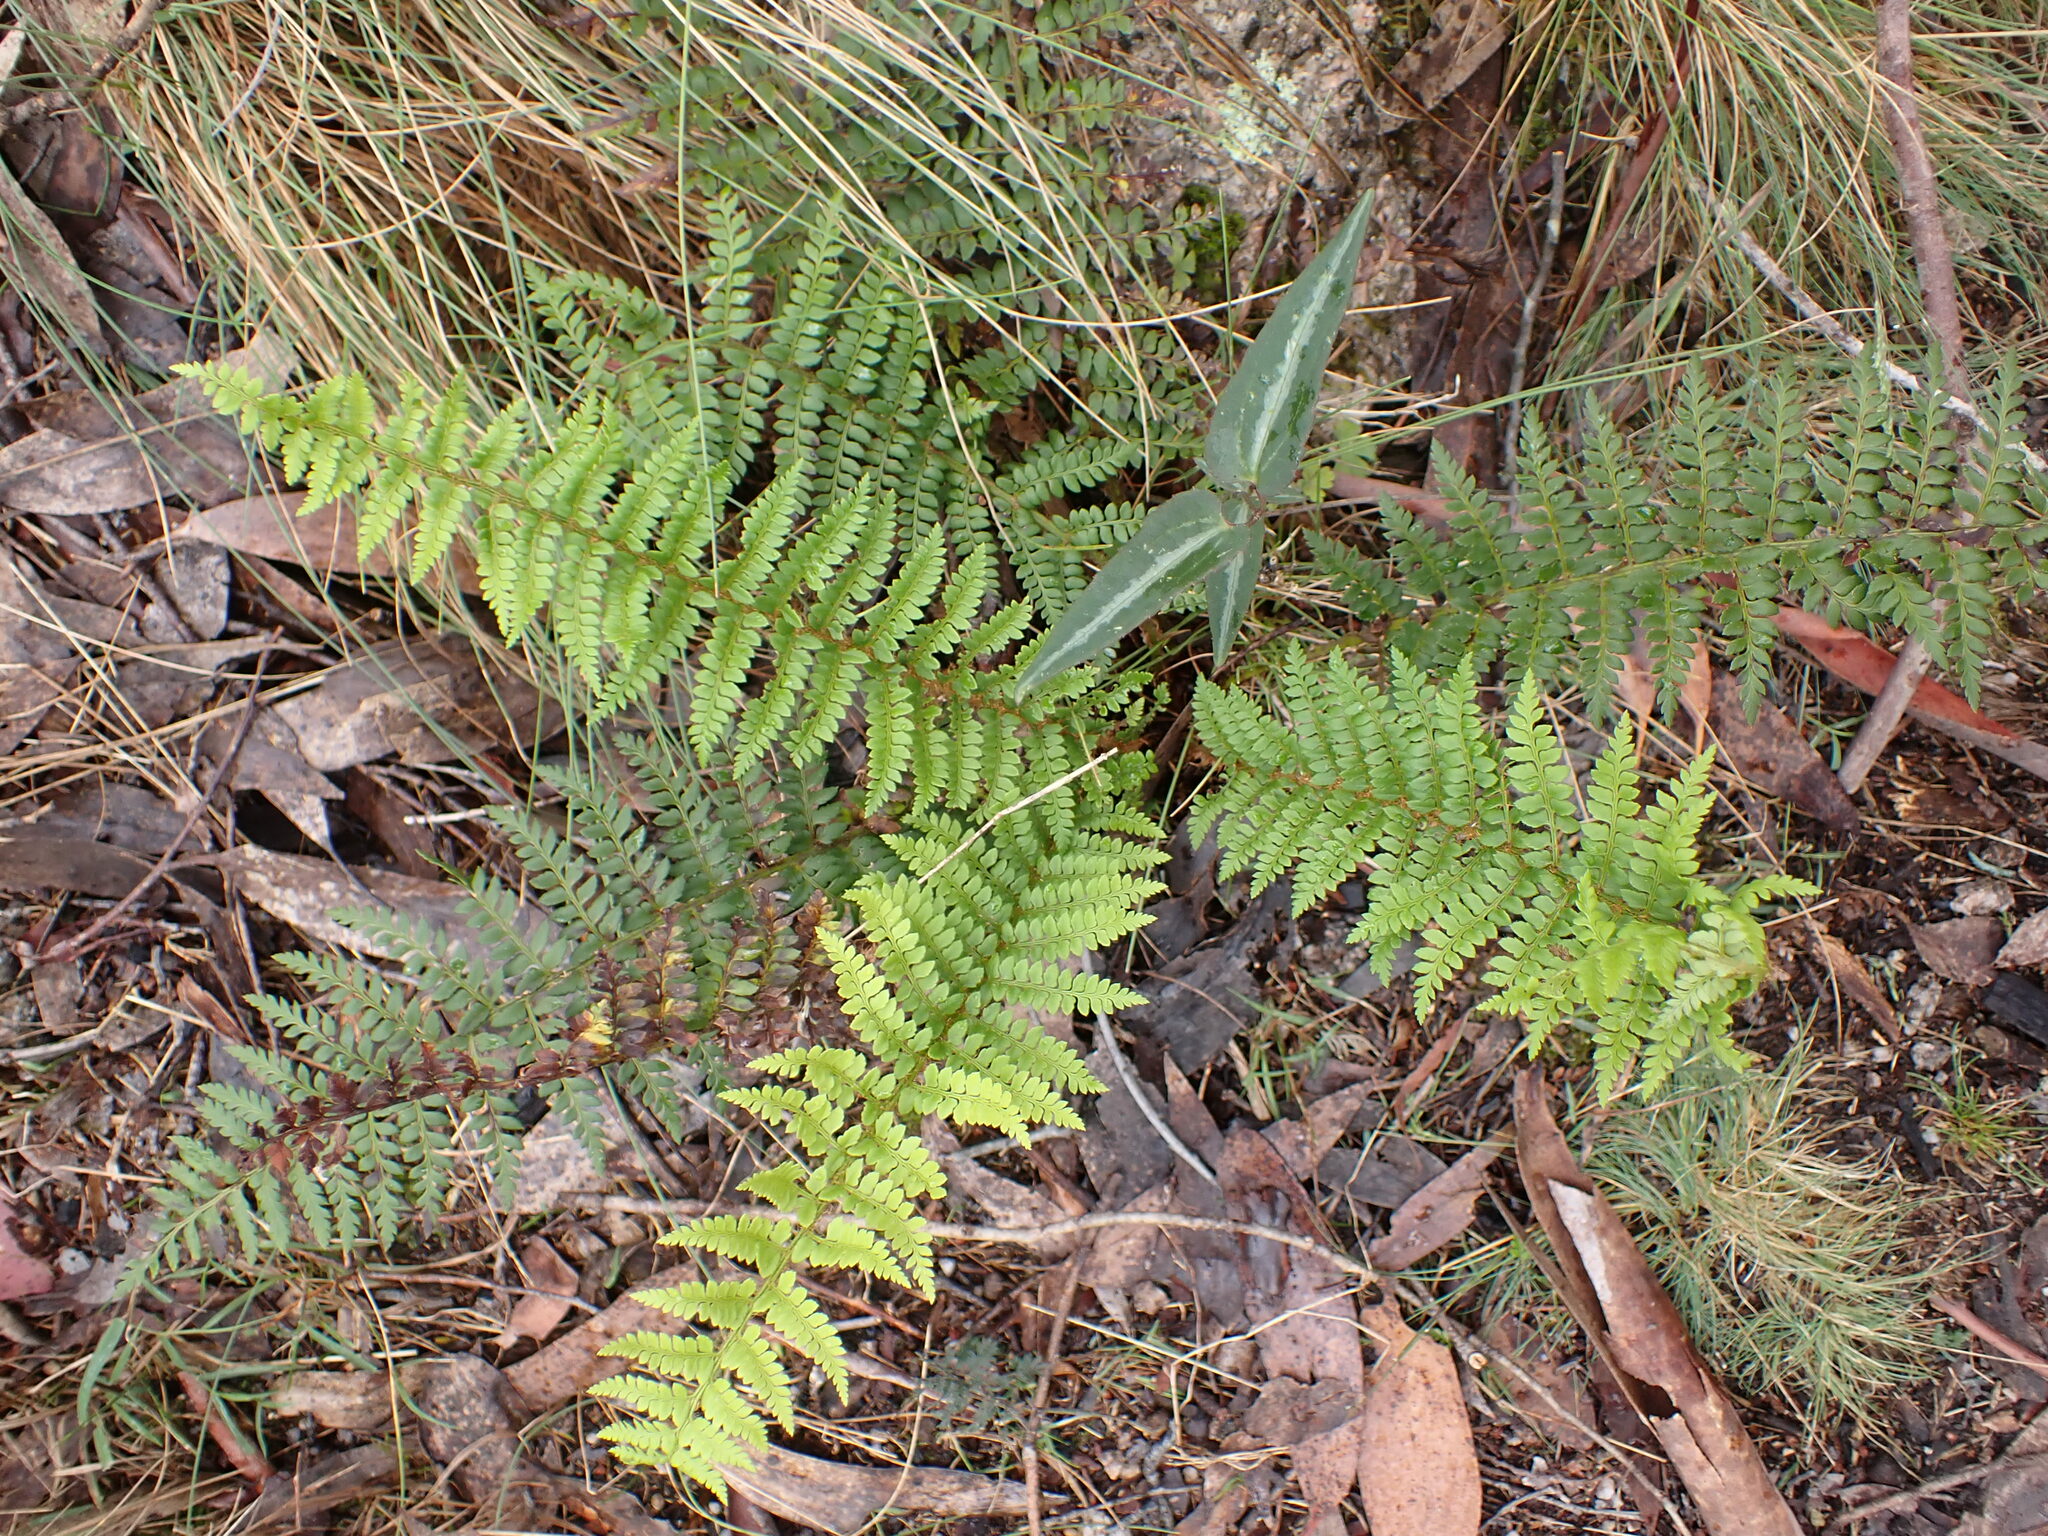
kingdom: Plantae
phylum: Tracheophyta
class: Polypodiopsida
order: Polypodiales
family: Dryopteridaceae
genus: Polystichum
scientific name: Polystichum proliferum
